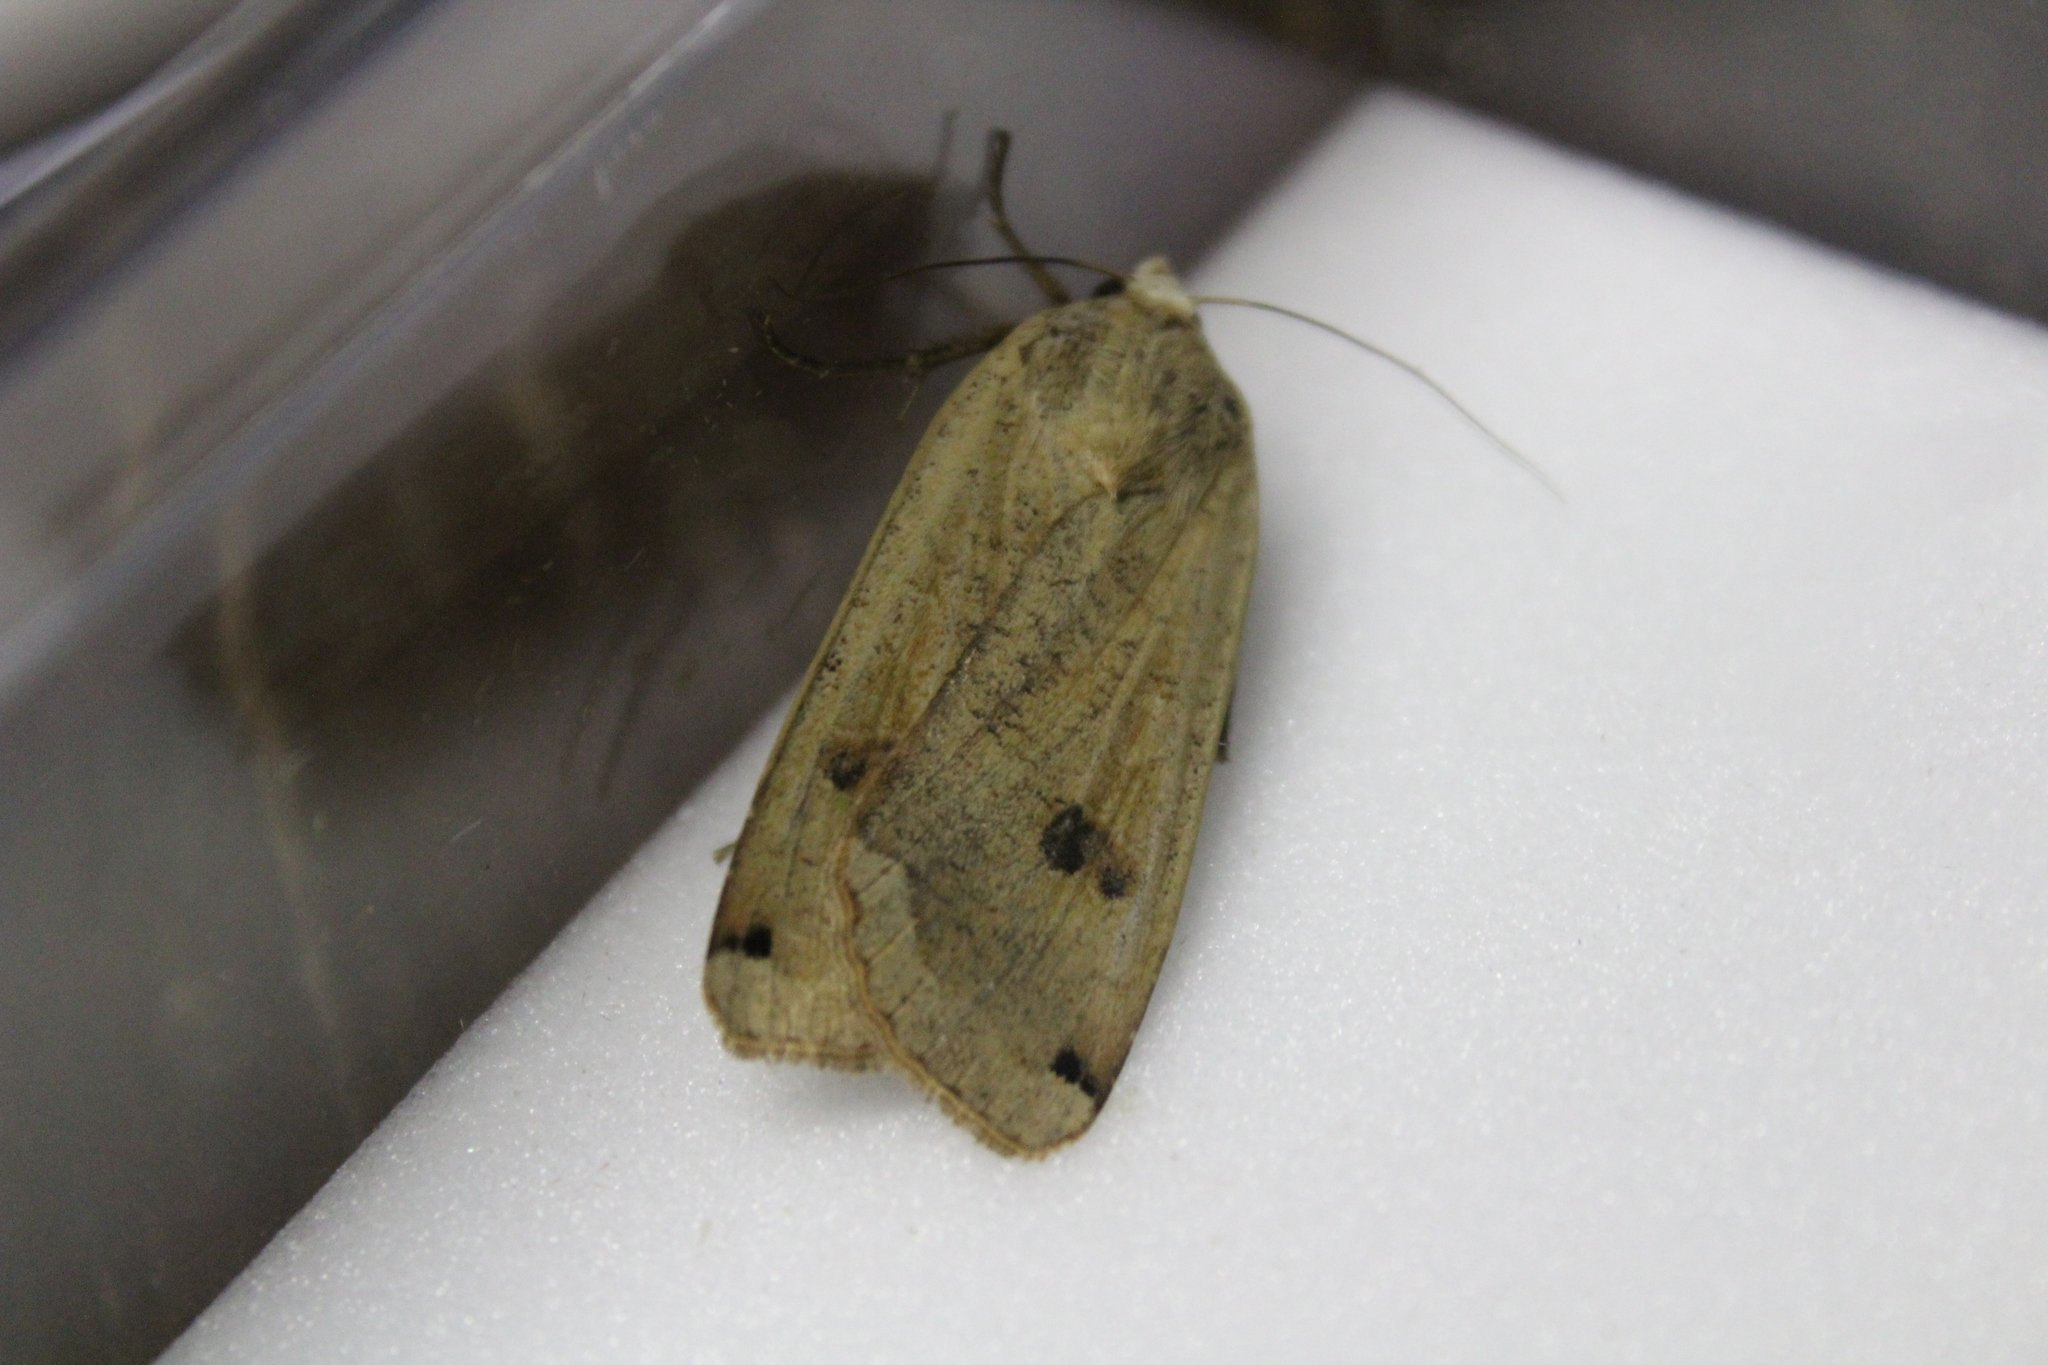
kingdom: Animalia
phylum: Arthropoda
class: Insecta
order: Lepidoptera
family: Noctuidae
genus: Noctua
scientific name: Noctua pronuba
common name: Large yellow underwing
